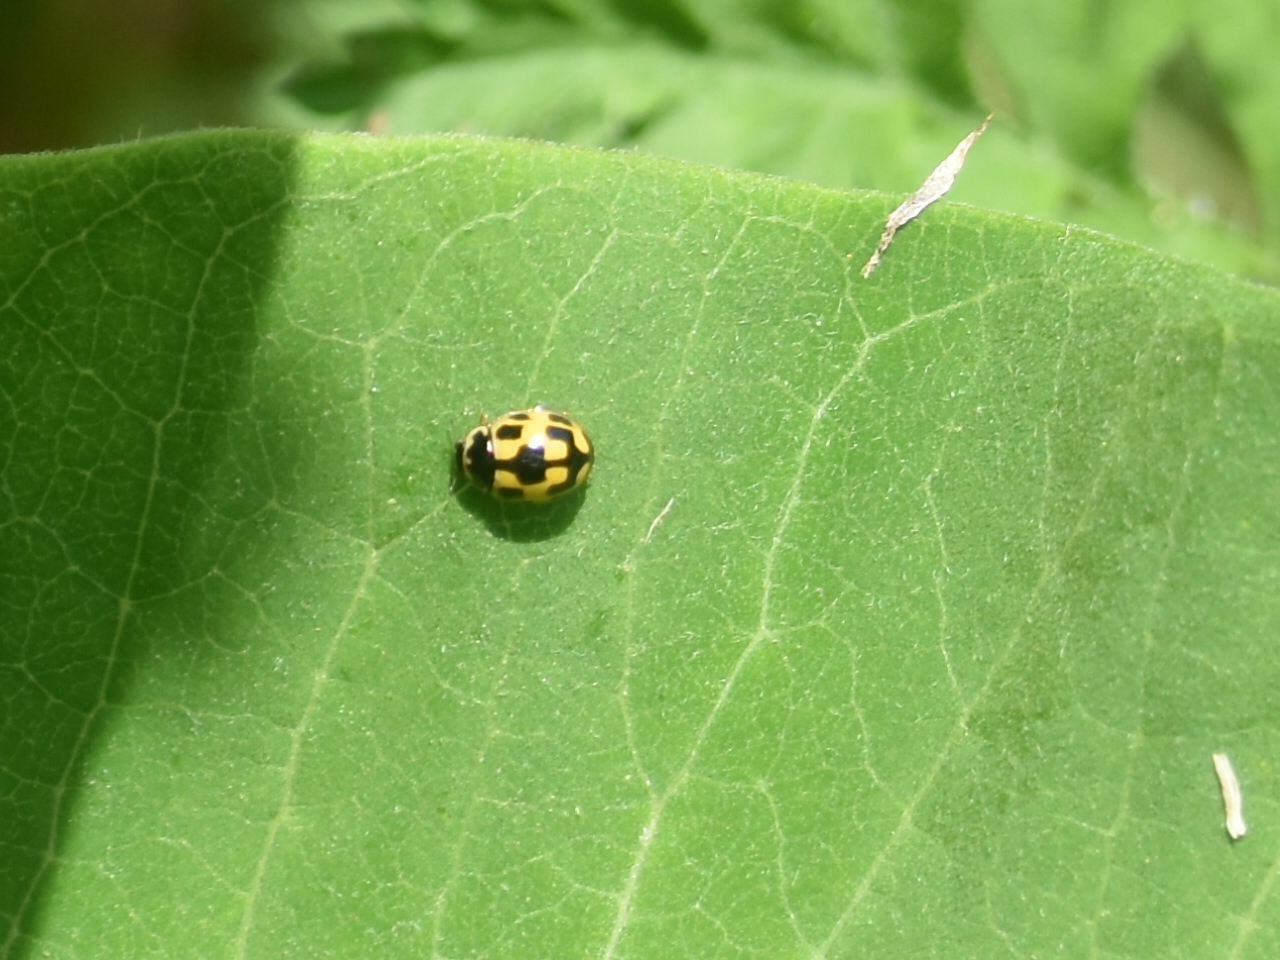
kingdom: Animalia
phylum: Arthropoda
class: Insecta
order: Coleoptera
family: Coccinellidae
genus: Propylaea
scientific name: Propylaea quatuordecimpunctata
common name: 14-spotted ladybird beetle
